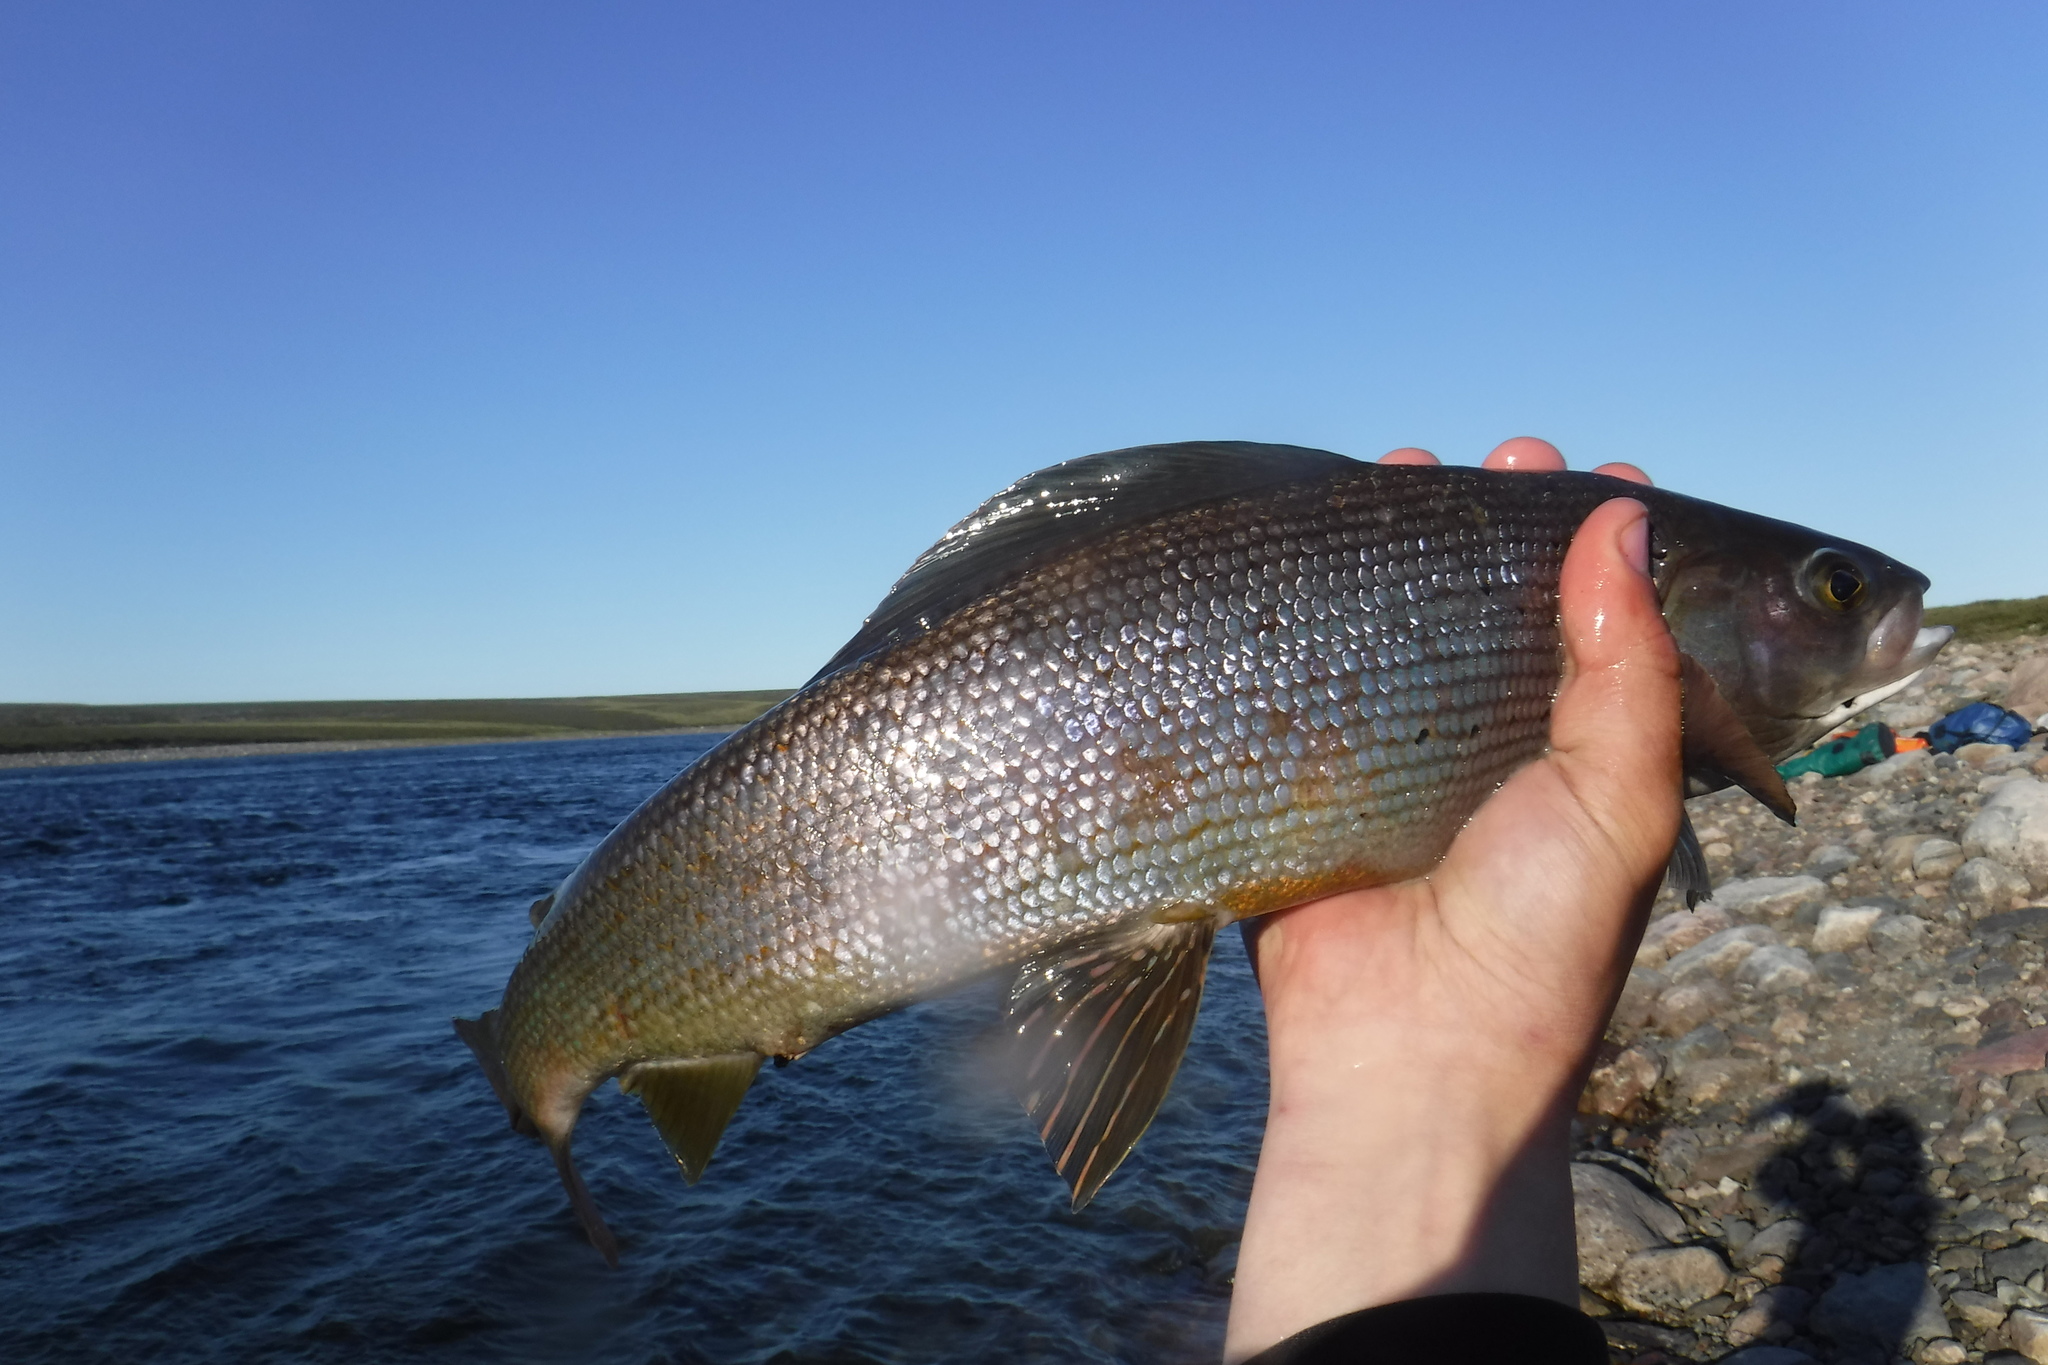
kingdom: Animalia
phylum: Chordata
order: Salmoniformes
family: Salmonidae
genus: Thymallus
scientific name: Thymallus arcticus
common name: Arctic grayling
